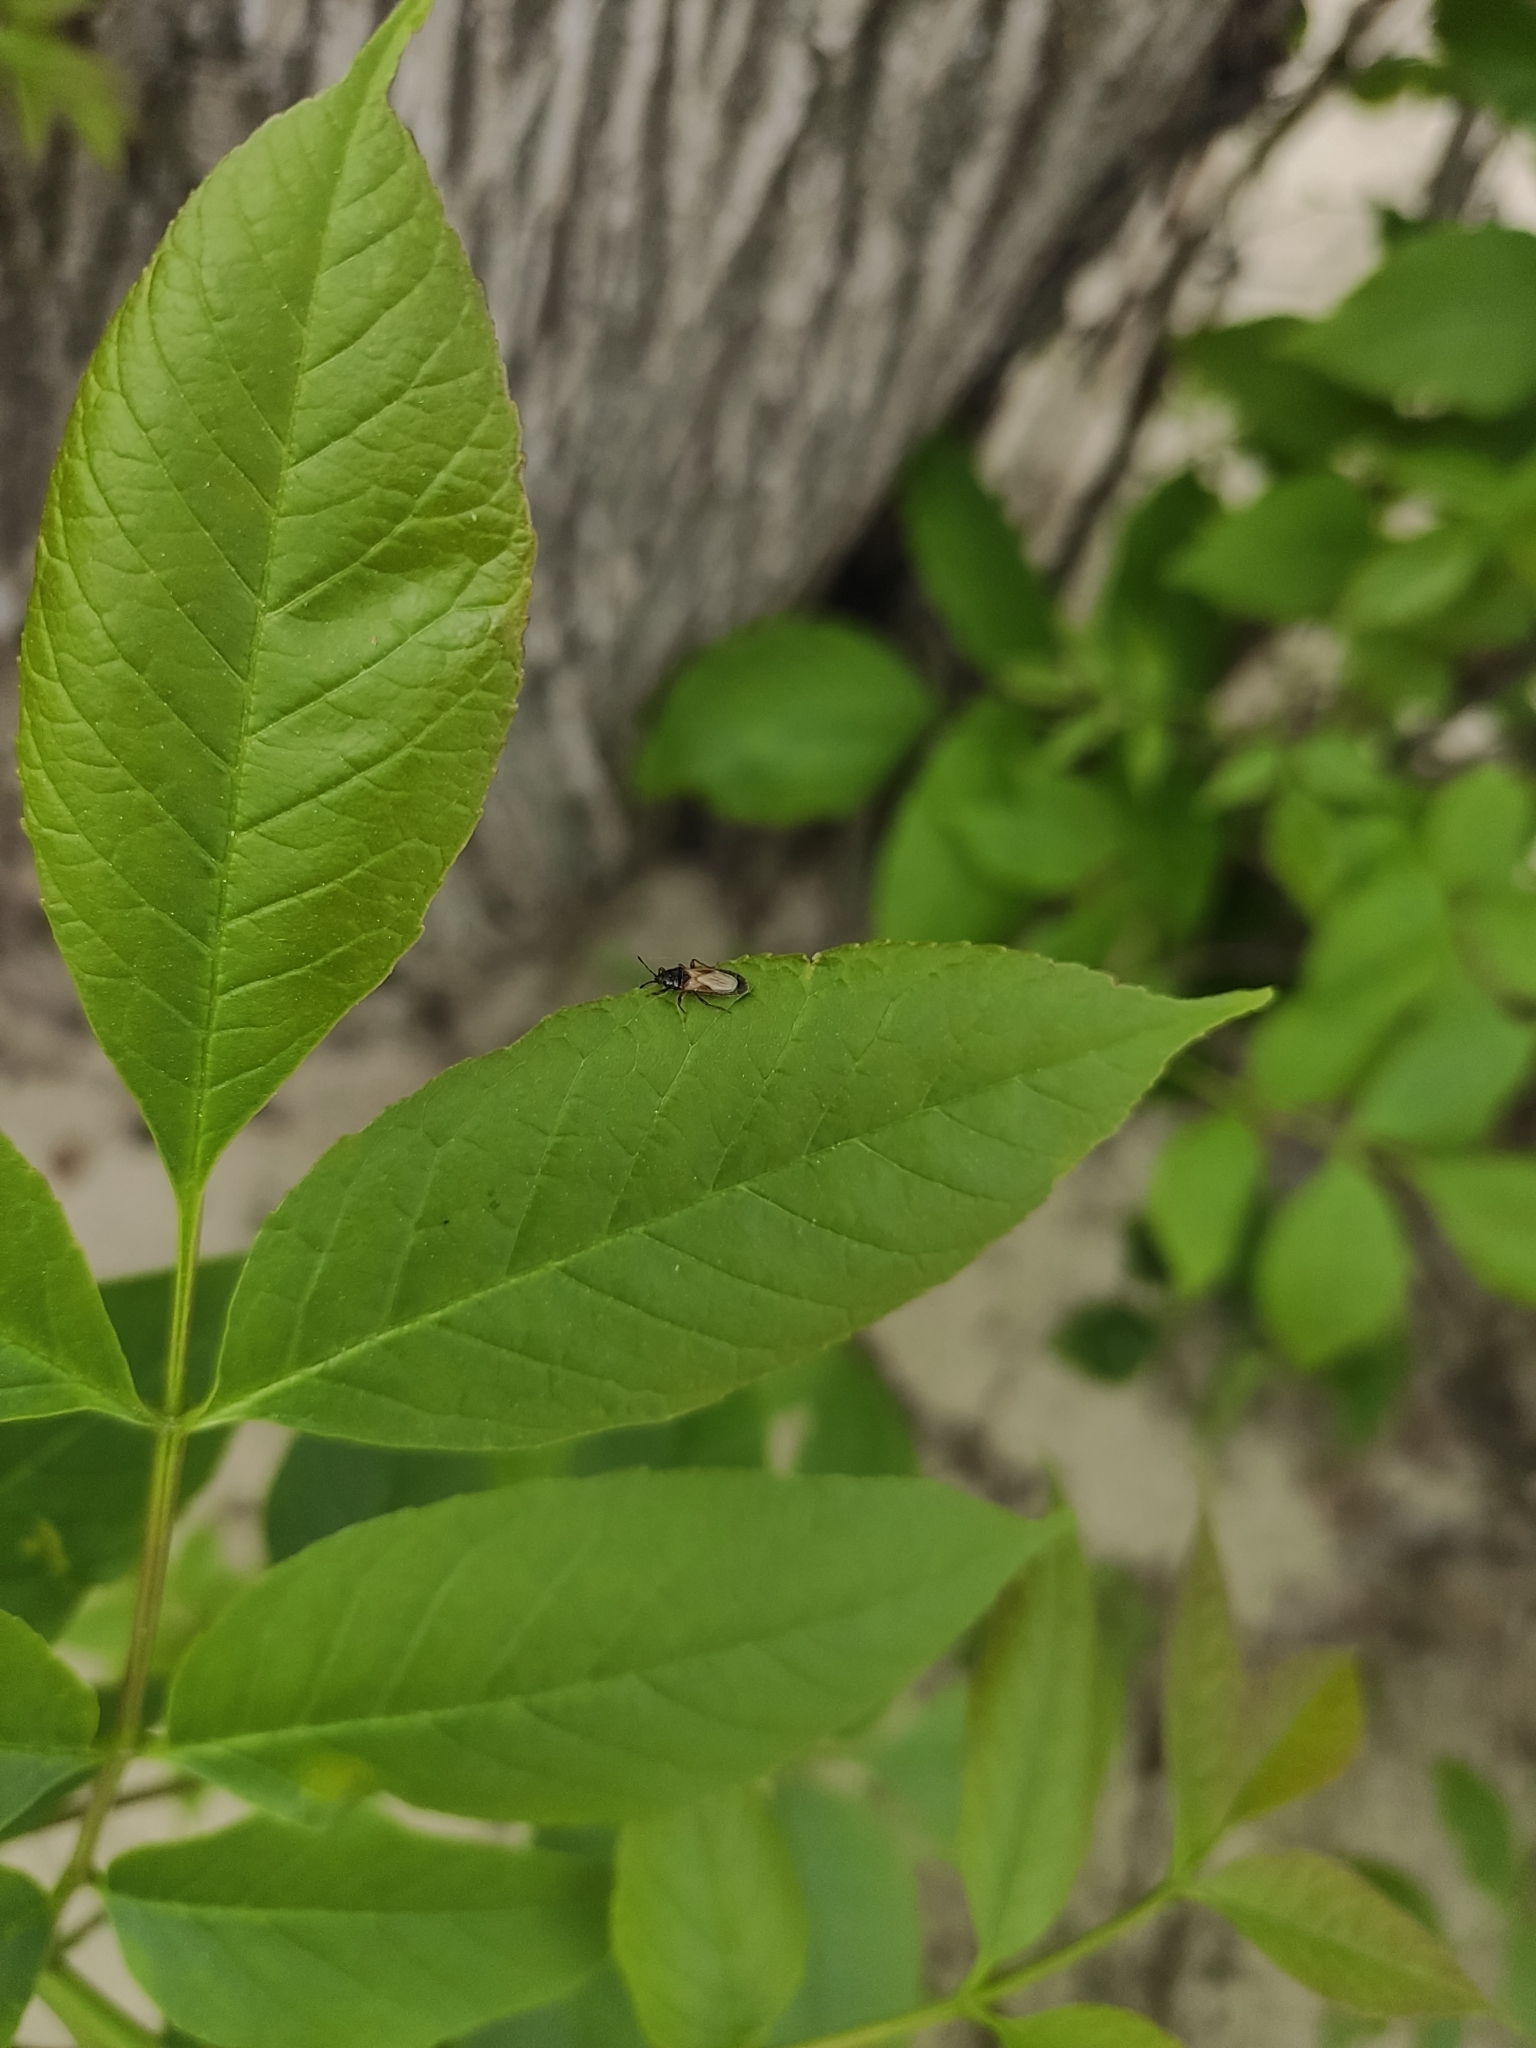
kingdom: Animalia
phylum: Arthropoda
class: Insecta
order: Hemiptera
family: Blissidae
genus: Dimorphopterus
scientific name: Dimorphopterus spinolae
